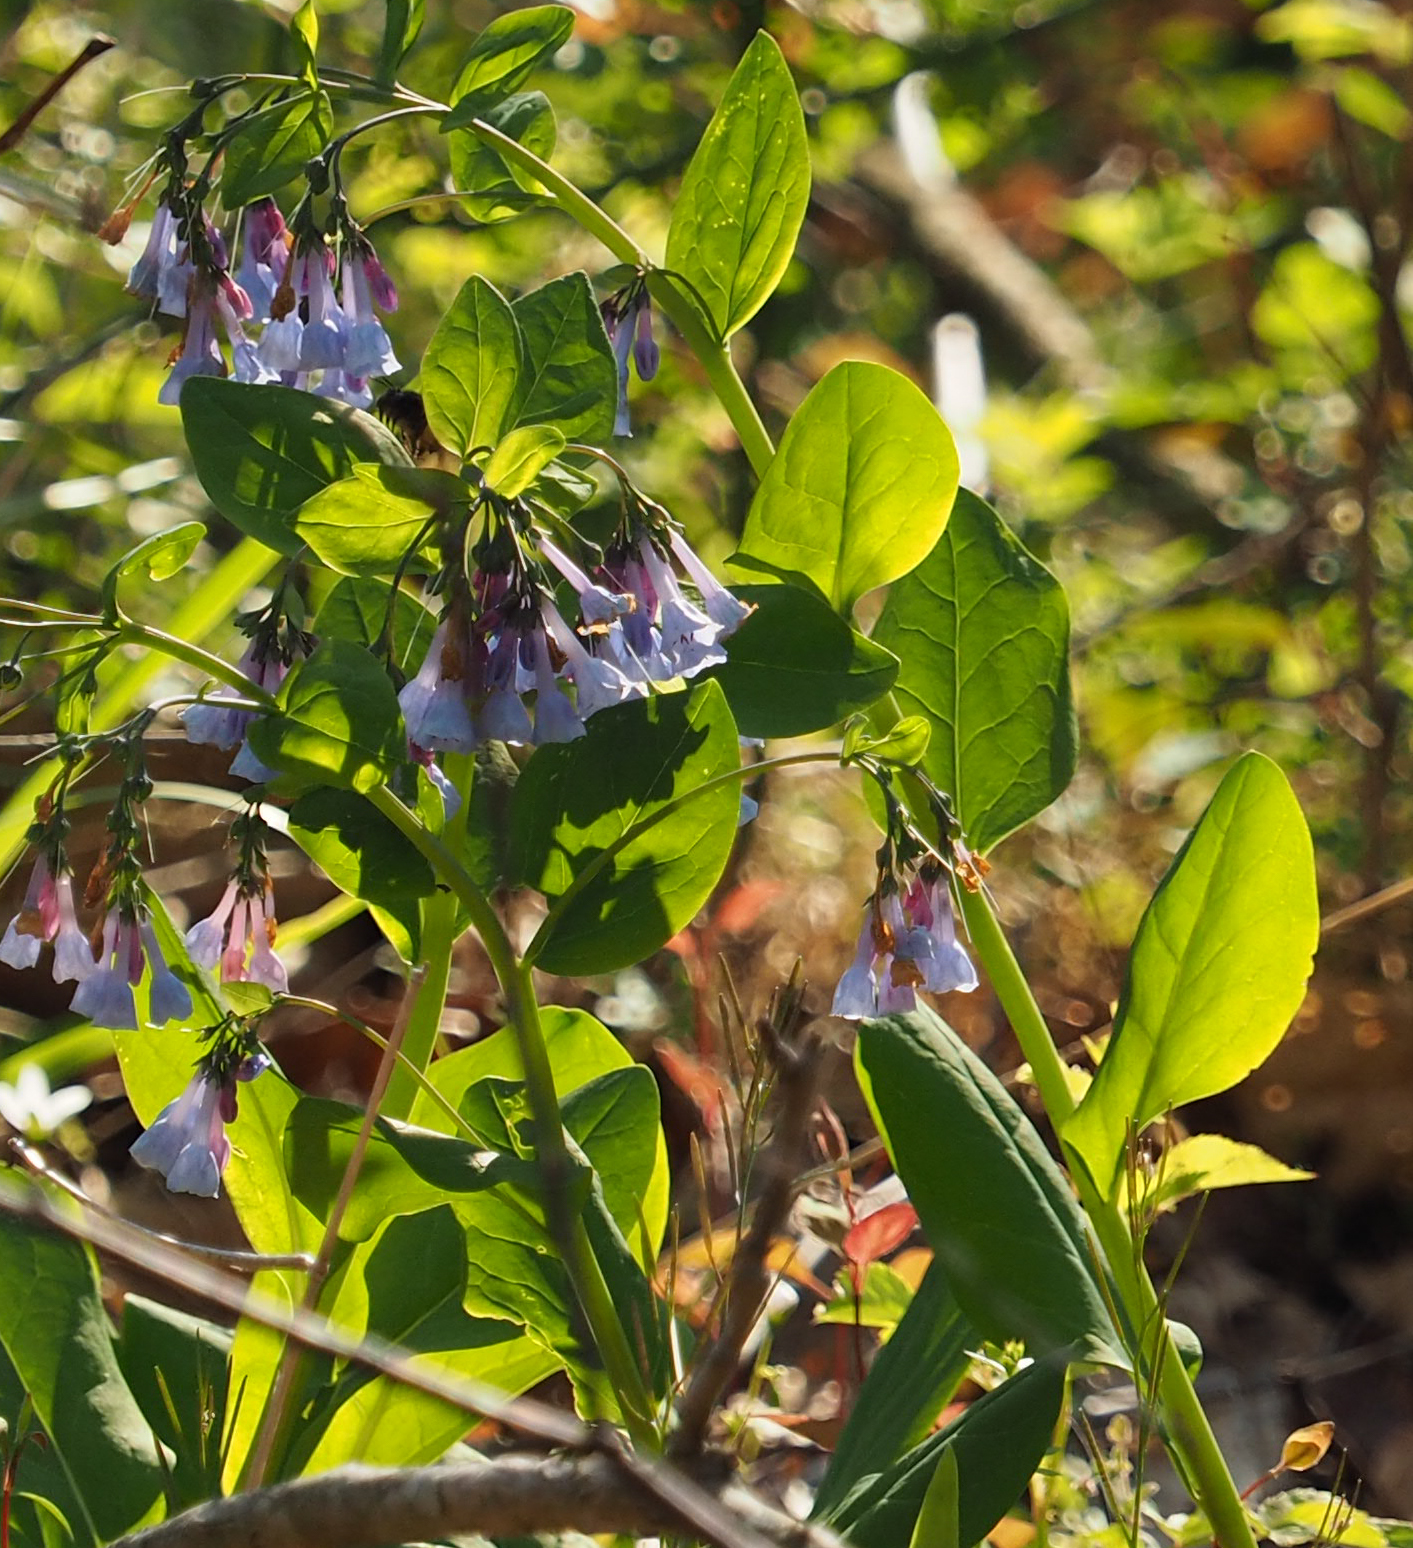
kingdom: Plantae
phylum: Tracheophyta
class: Magnoliopsida
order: Boraginales
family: Boraginaceae
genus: Mertensia
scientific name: Mertensia virginica
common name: Virginia bluebells
